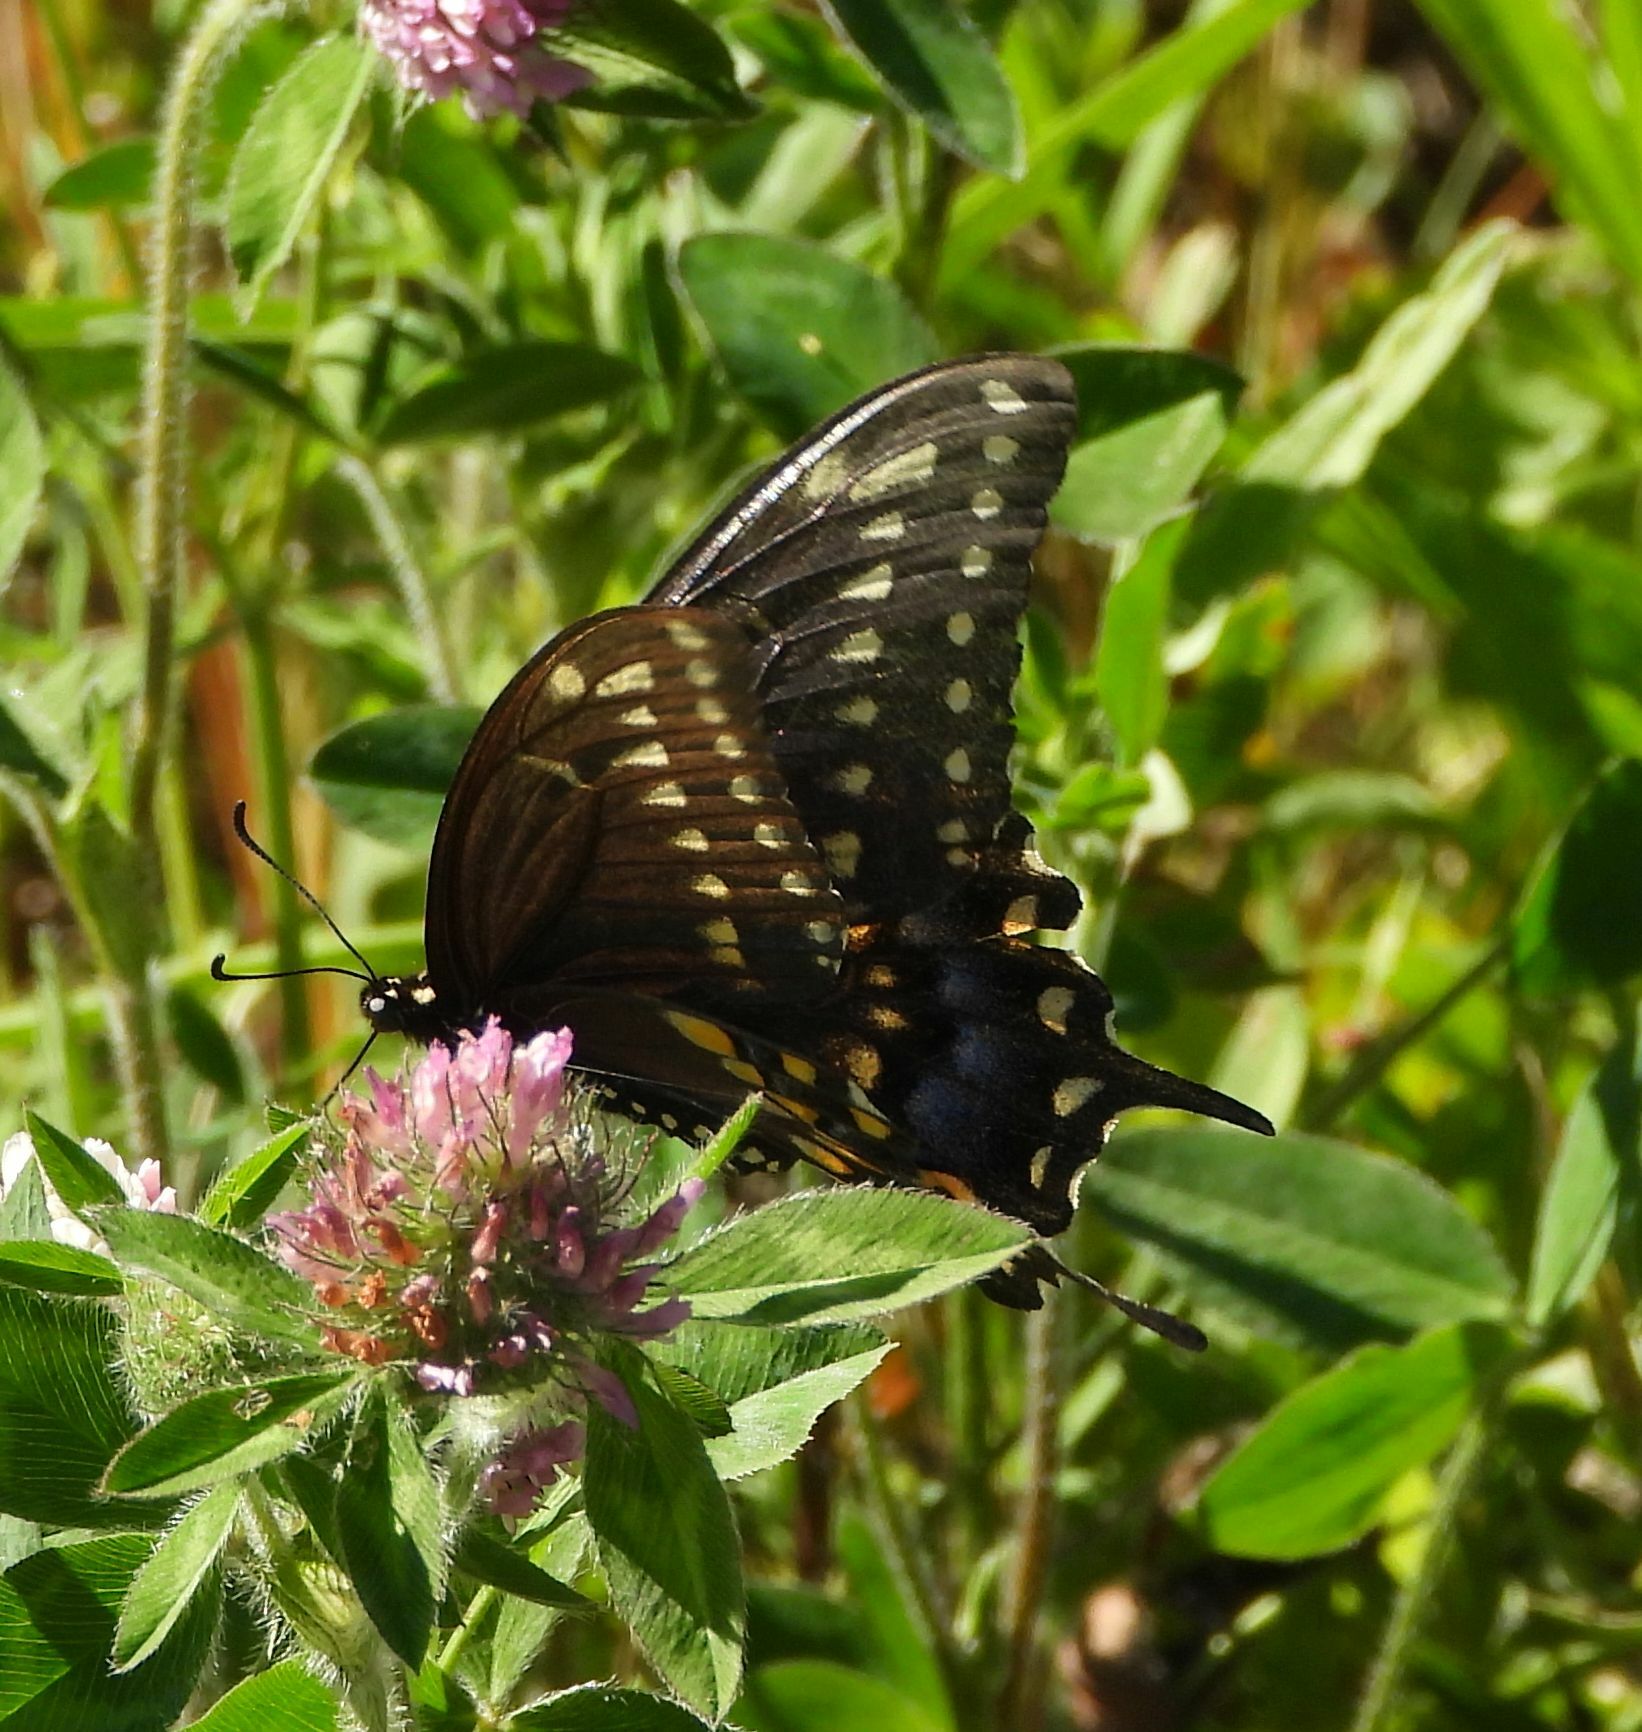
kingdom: Animalia
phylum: Arthropoda
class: Insecta
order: Lepidoptera
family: Papilionidae
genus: Papilio
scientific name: Papilio polyxenes
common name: Black swallowtail
